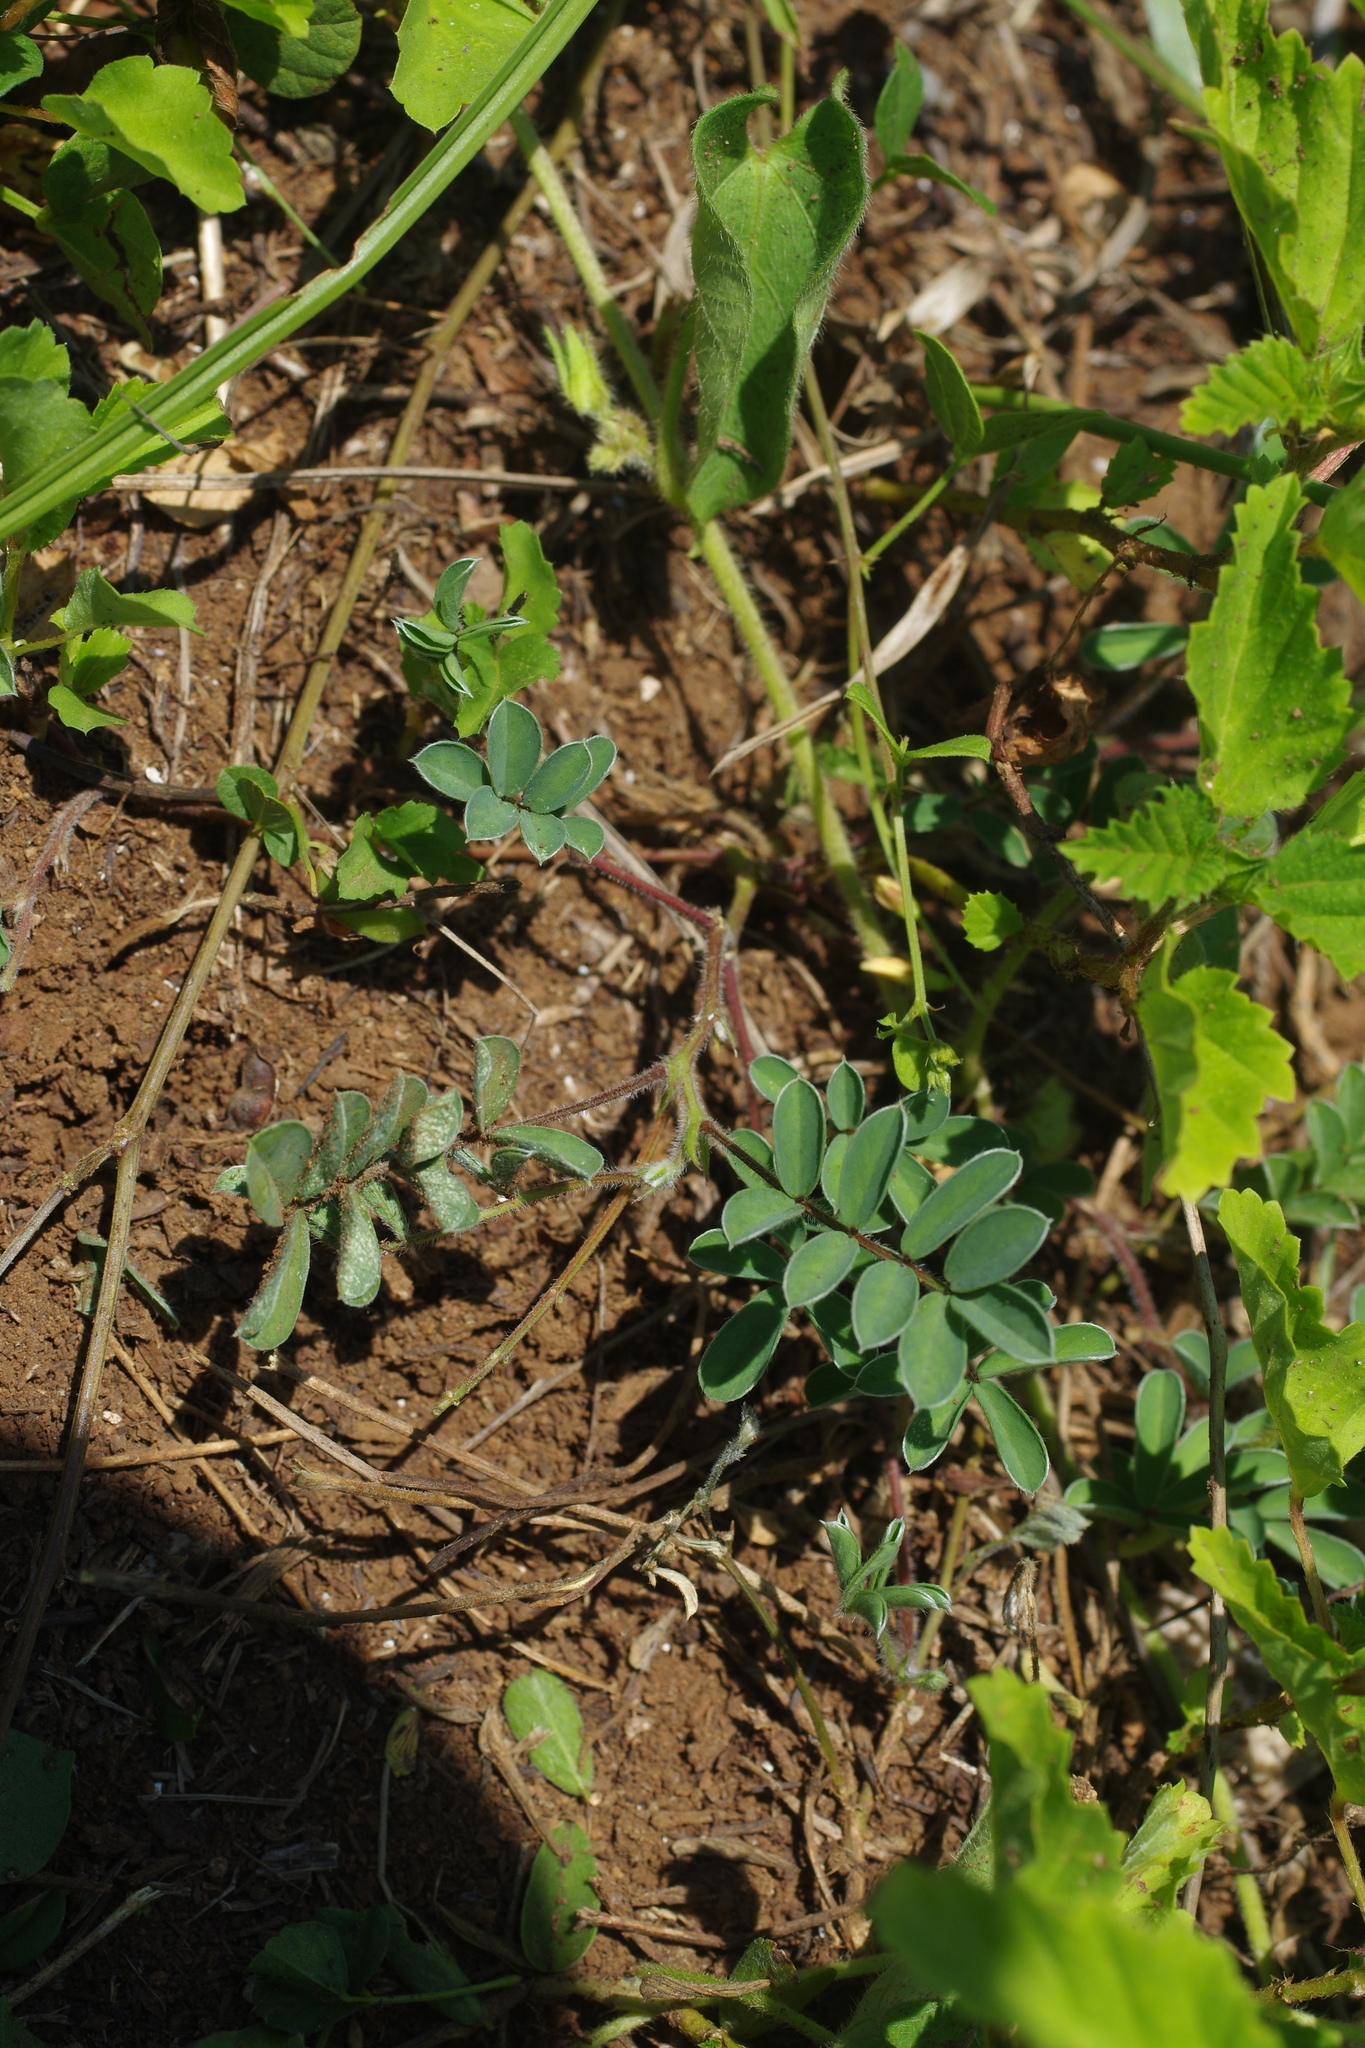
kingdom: Plantae
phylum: Tracheophyta
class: Magnoliopsida
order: Fabales
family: Fabaceae
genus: Tephrosia
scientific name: Tephrosia obovata
